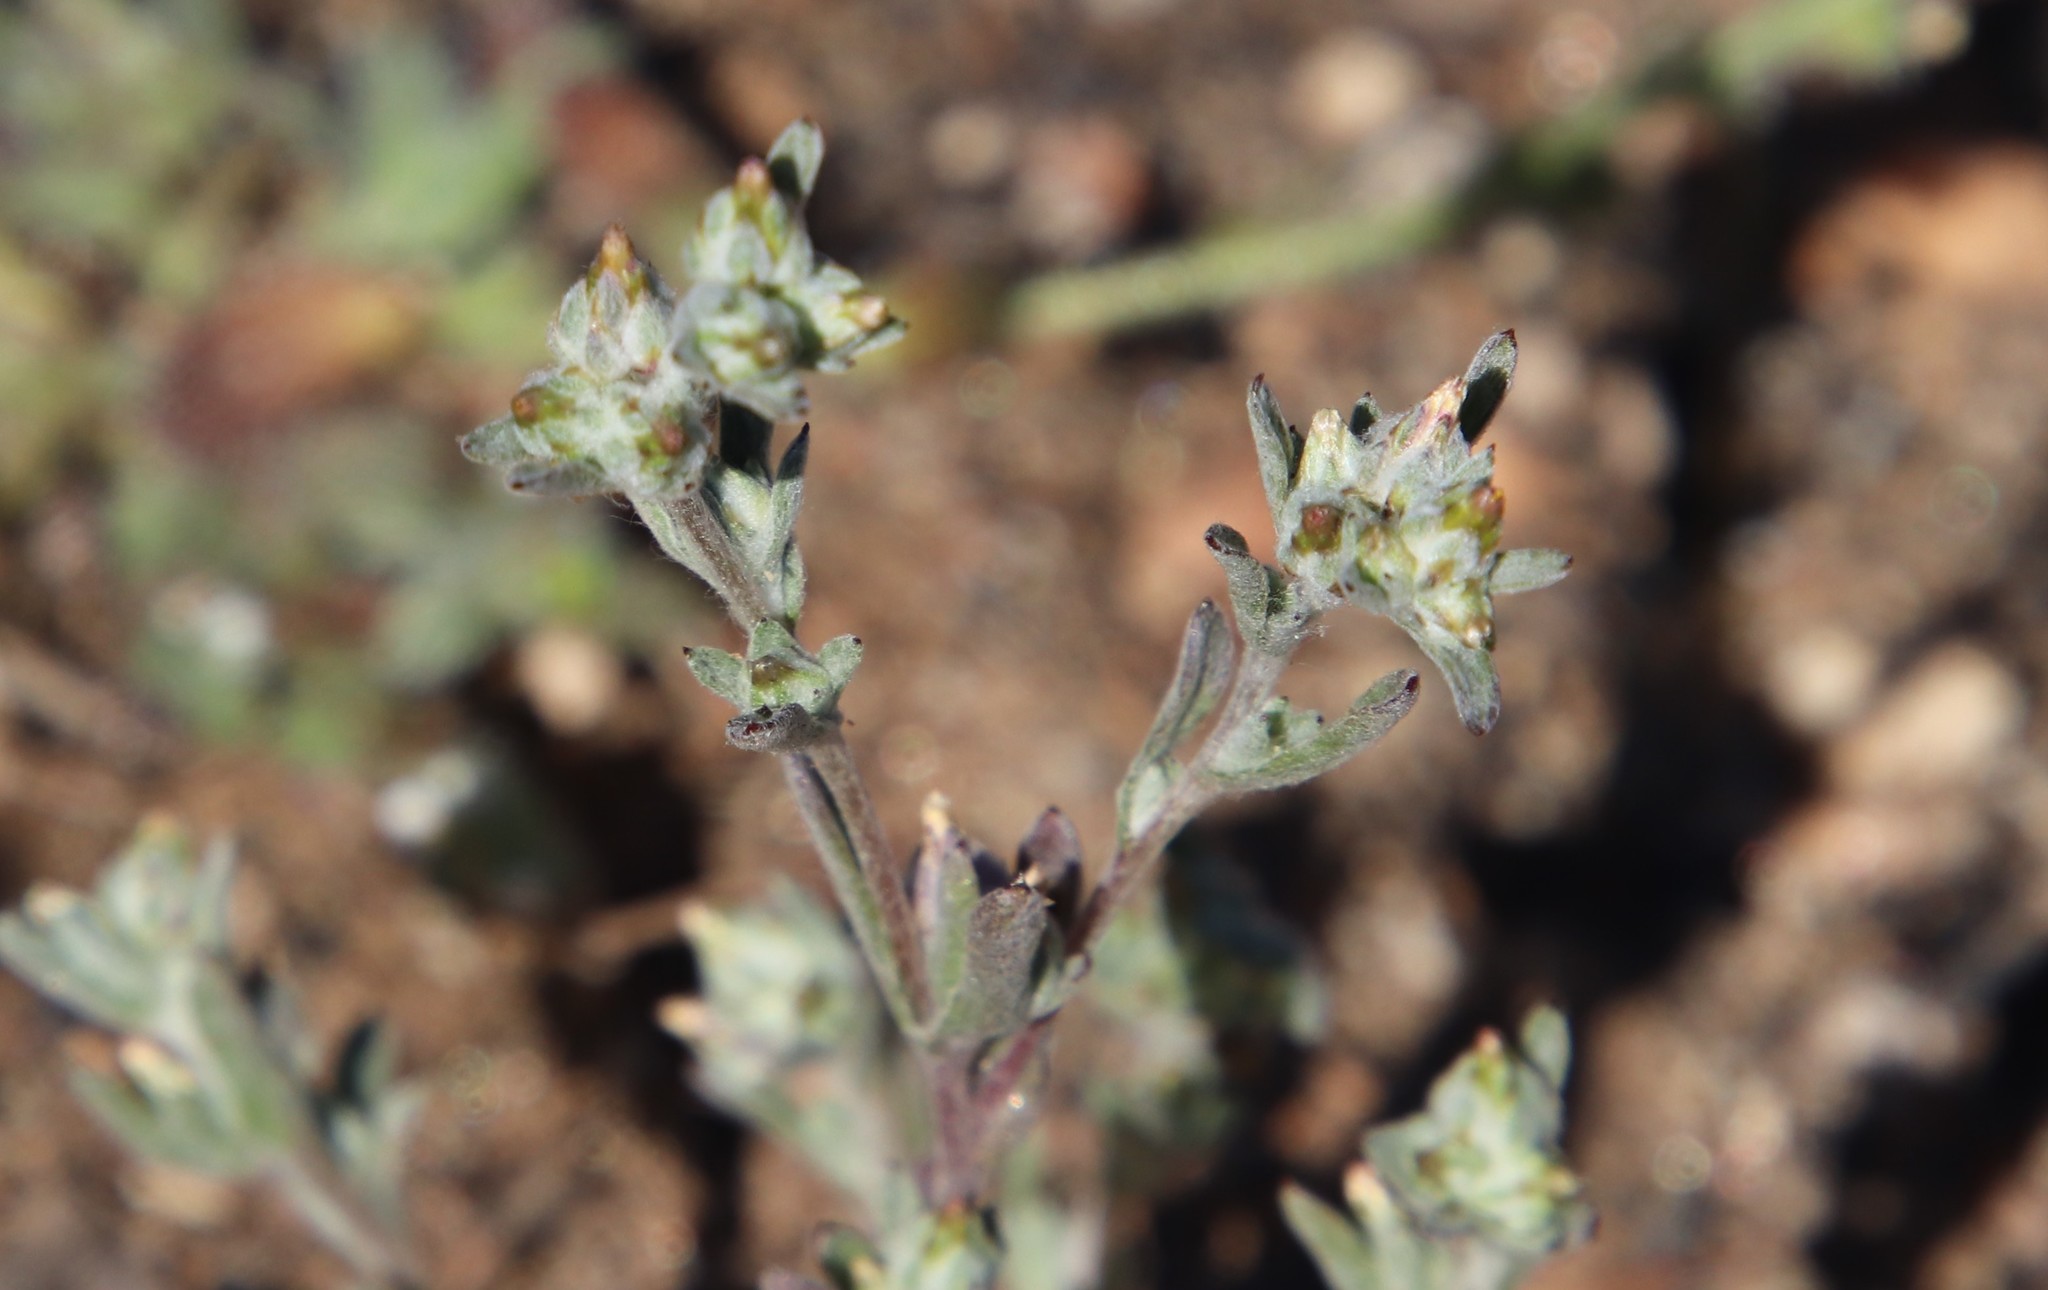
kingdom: Plantae
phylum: Tracheophyta
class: Magnoliopsida
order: Asterales
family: Asteraceae
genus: Logfia
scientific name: Logfia californica
